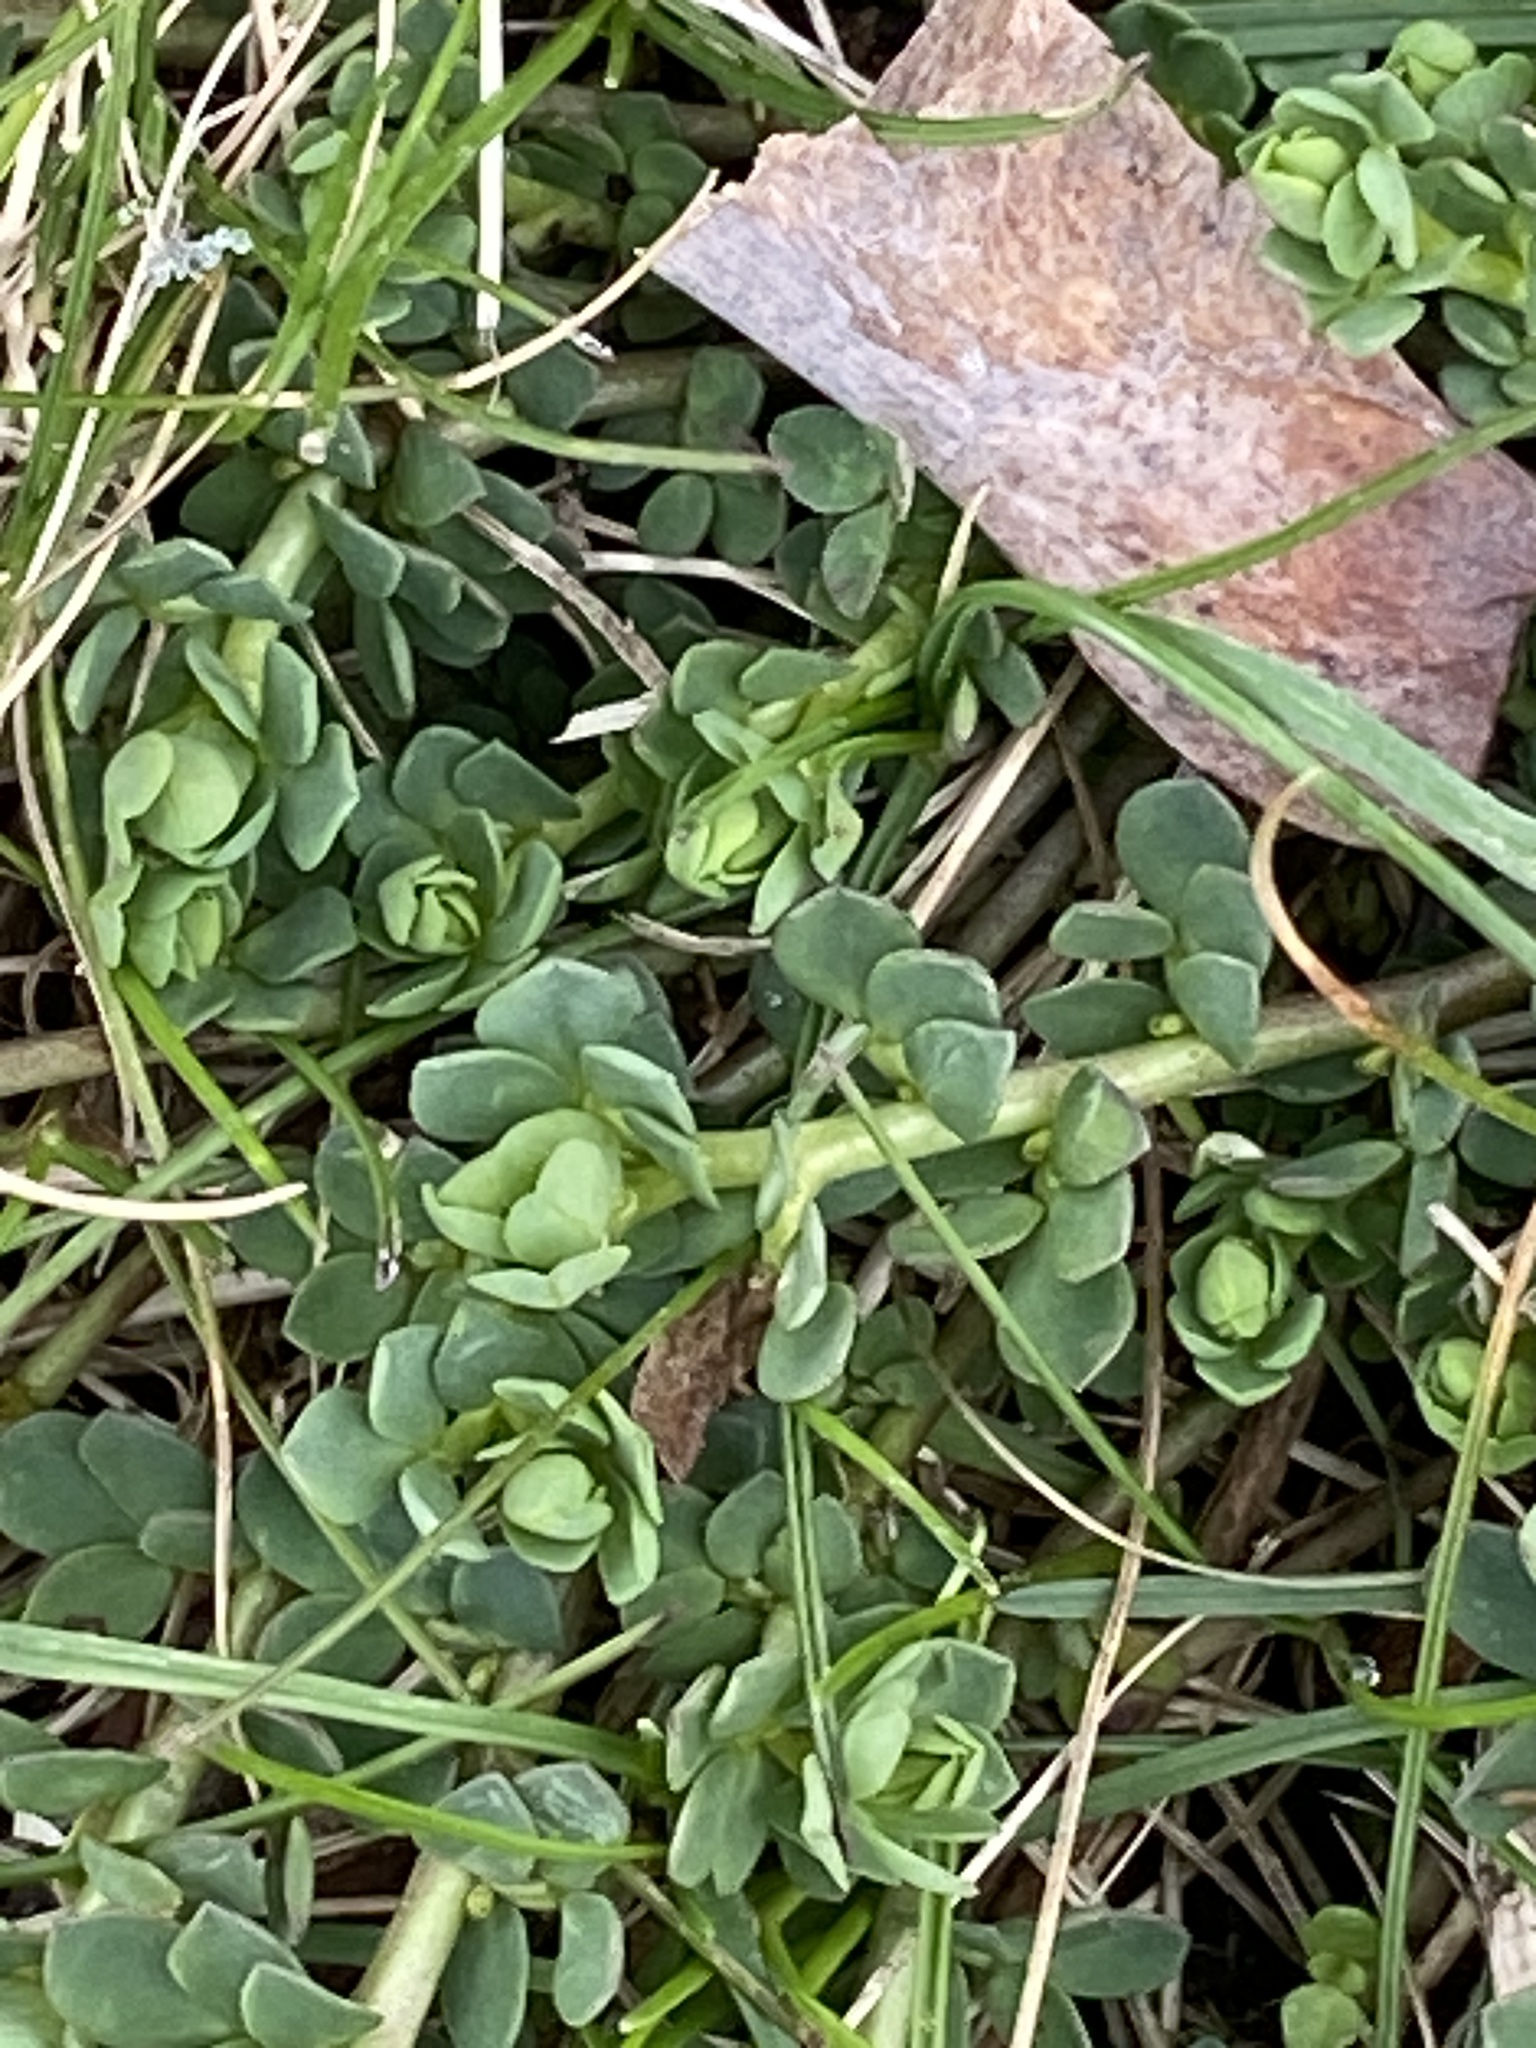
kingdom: Plantae
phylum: Tracheophyta
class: Magnoliopsida
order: Fabales
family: Fabaceae
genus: Lotus
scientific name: Lotus corniculatus
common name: Common bird's-foot-trefoil
